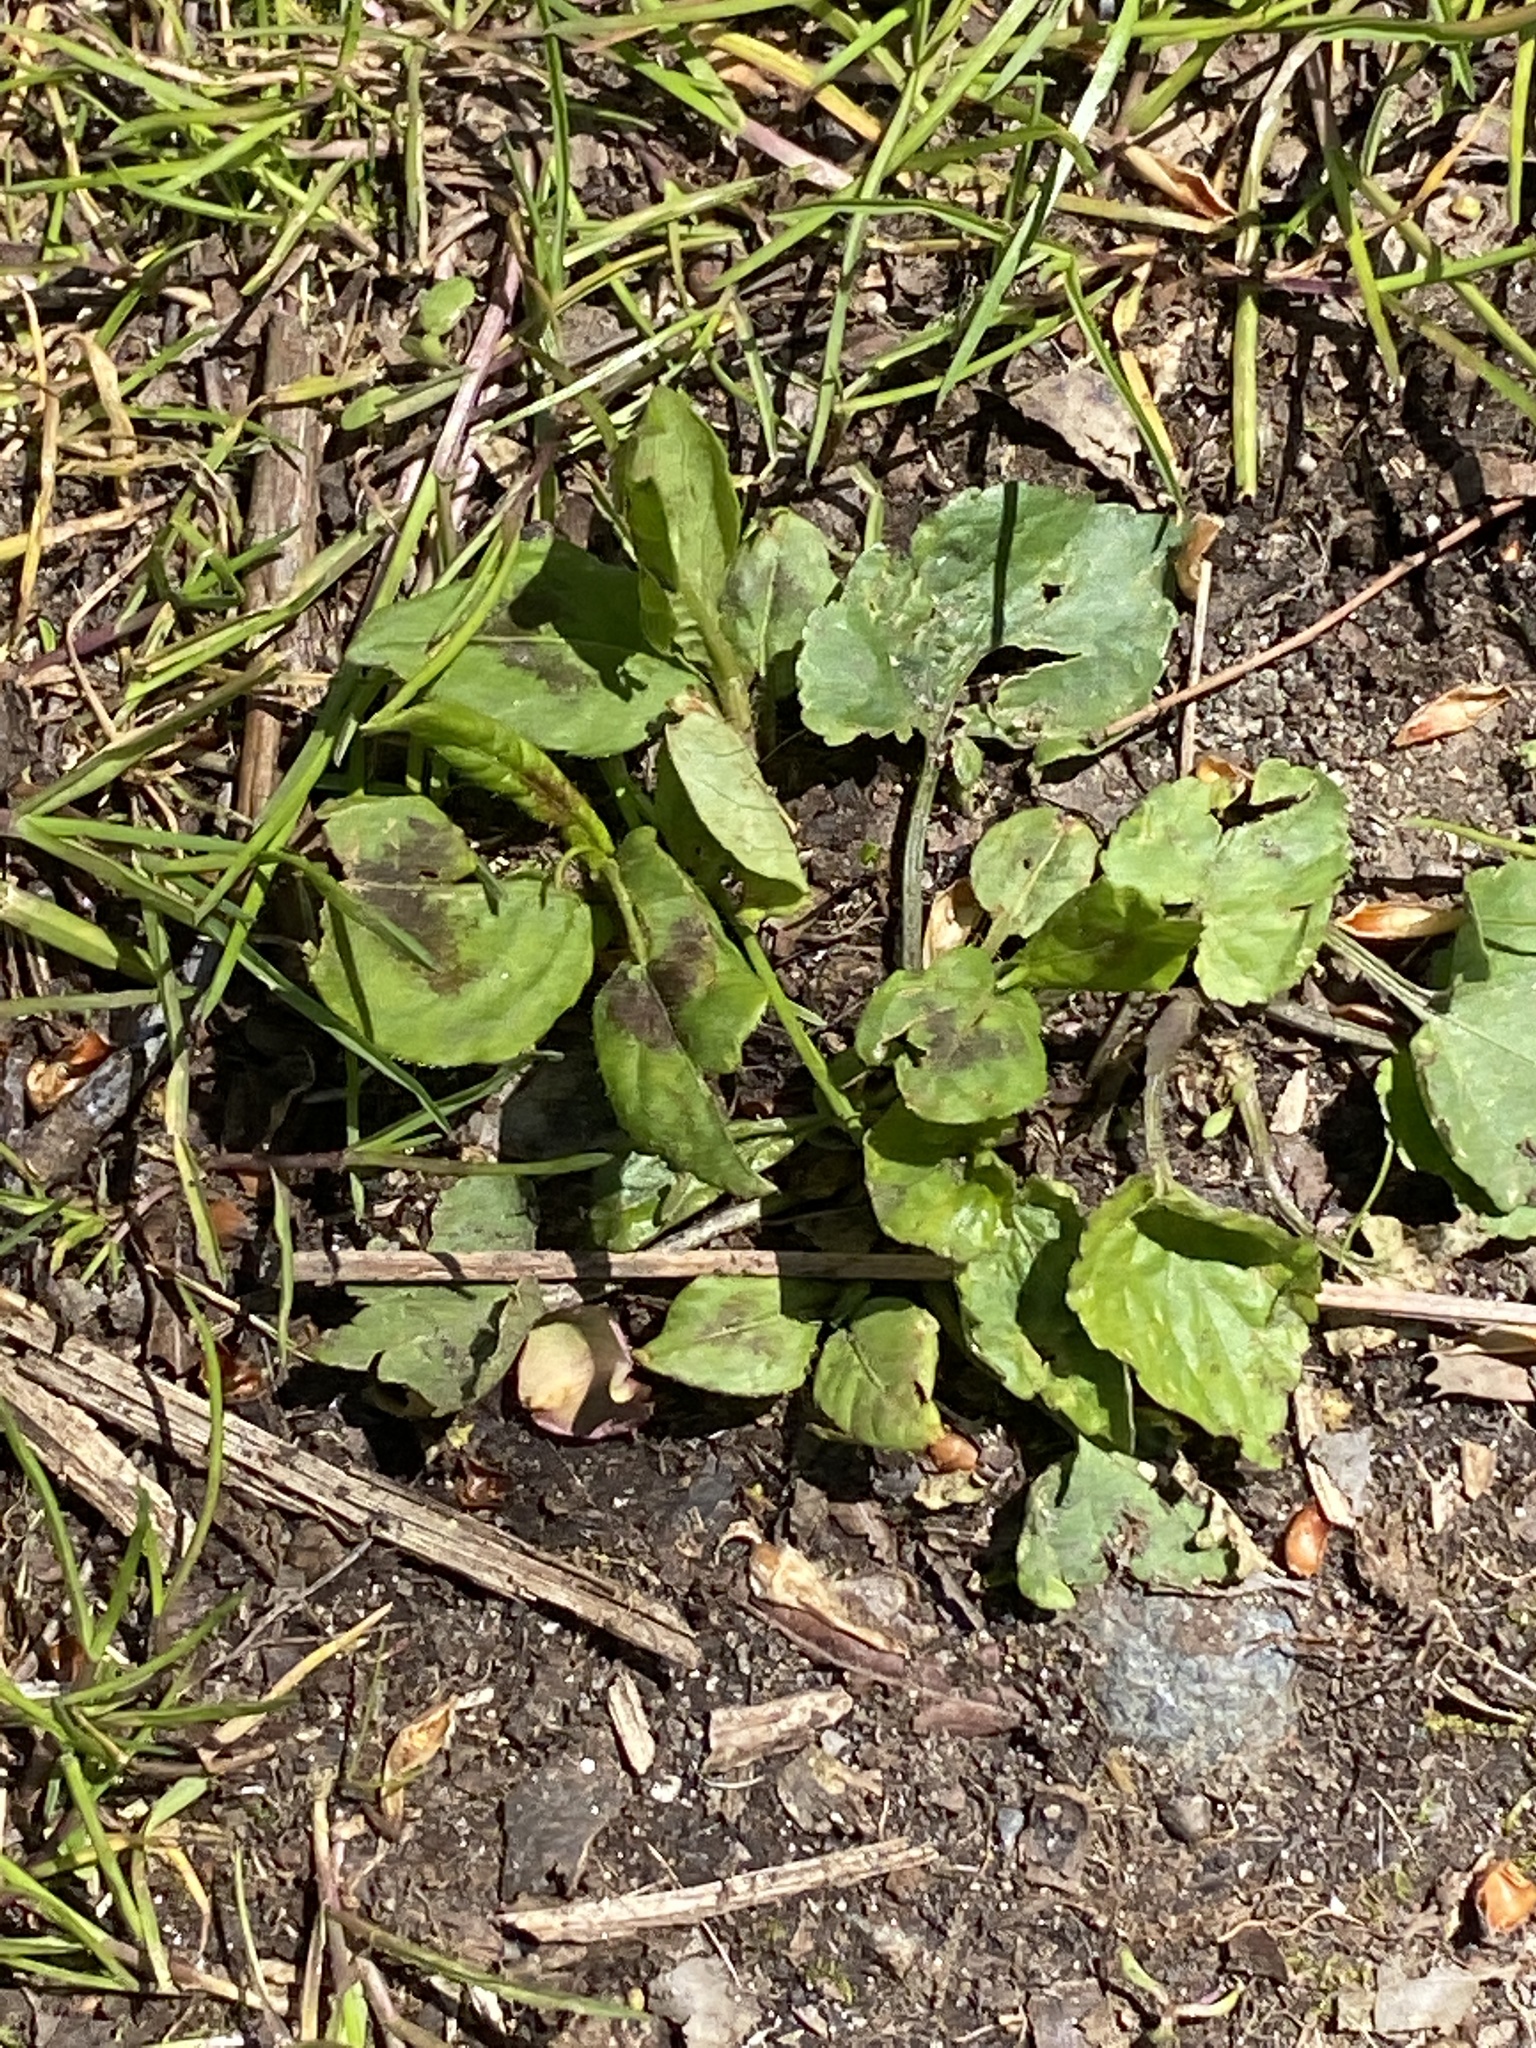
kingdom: Plantae
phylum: Tracheophyta
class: Magnoliopsida
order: Caryophyllales
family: Polygonaceae
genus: Persicaria
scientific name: Persicaria virginiana
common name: Jumpseed
